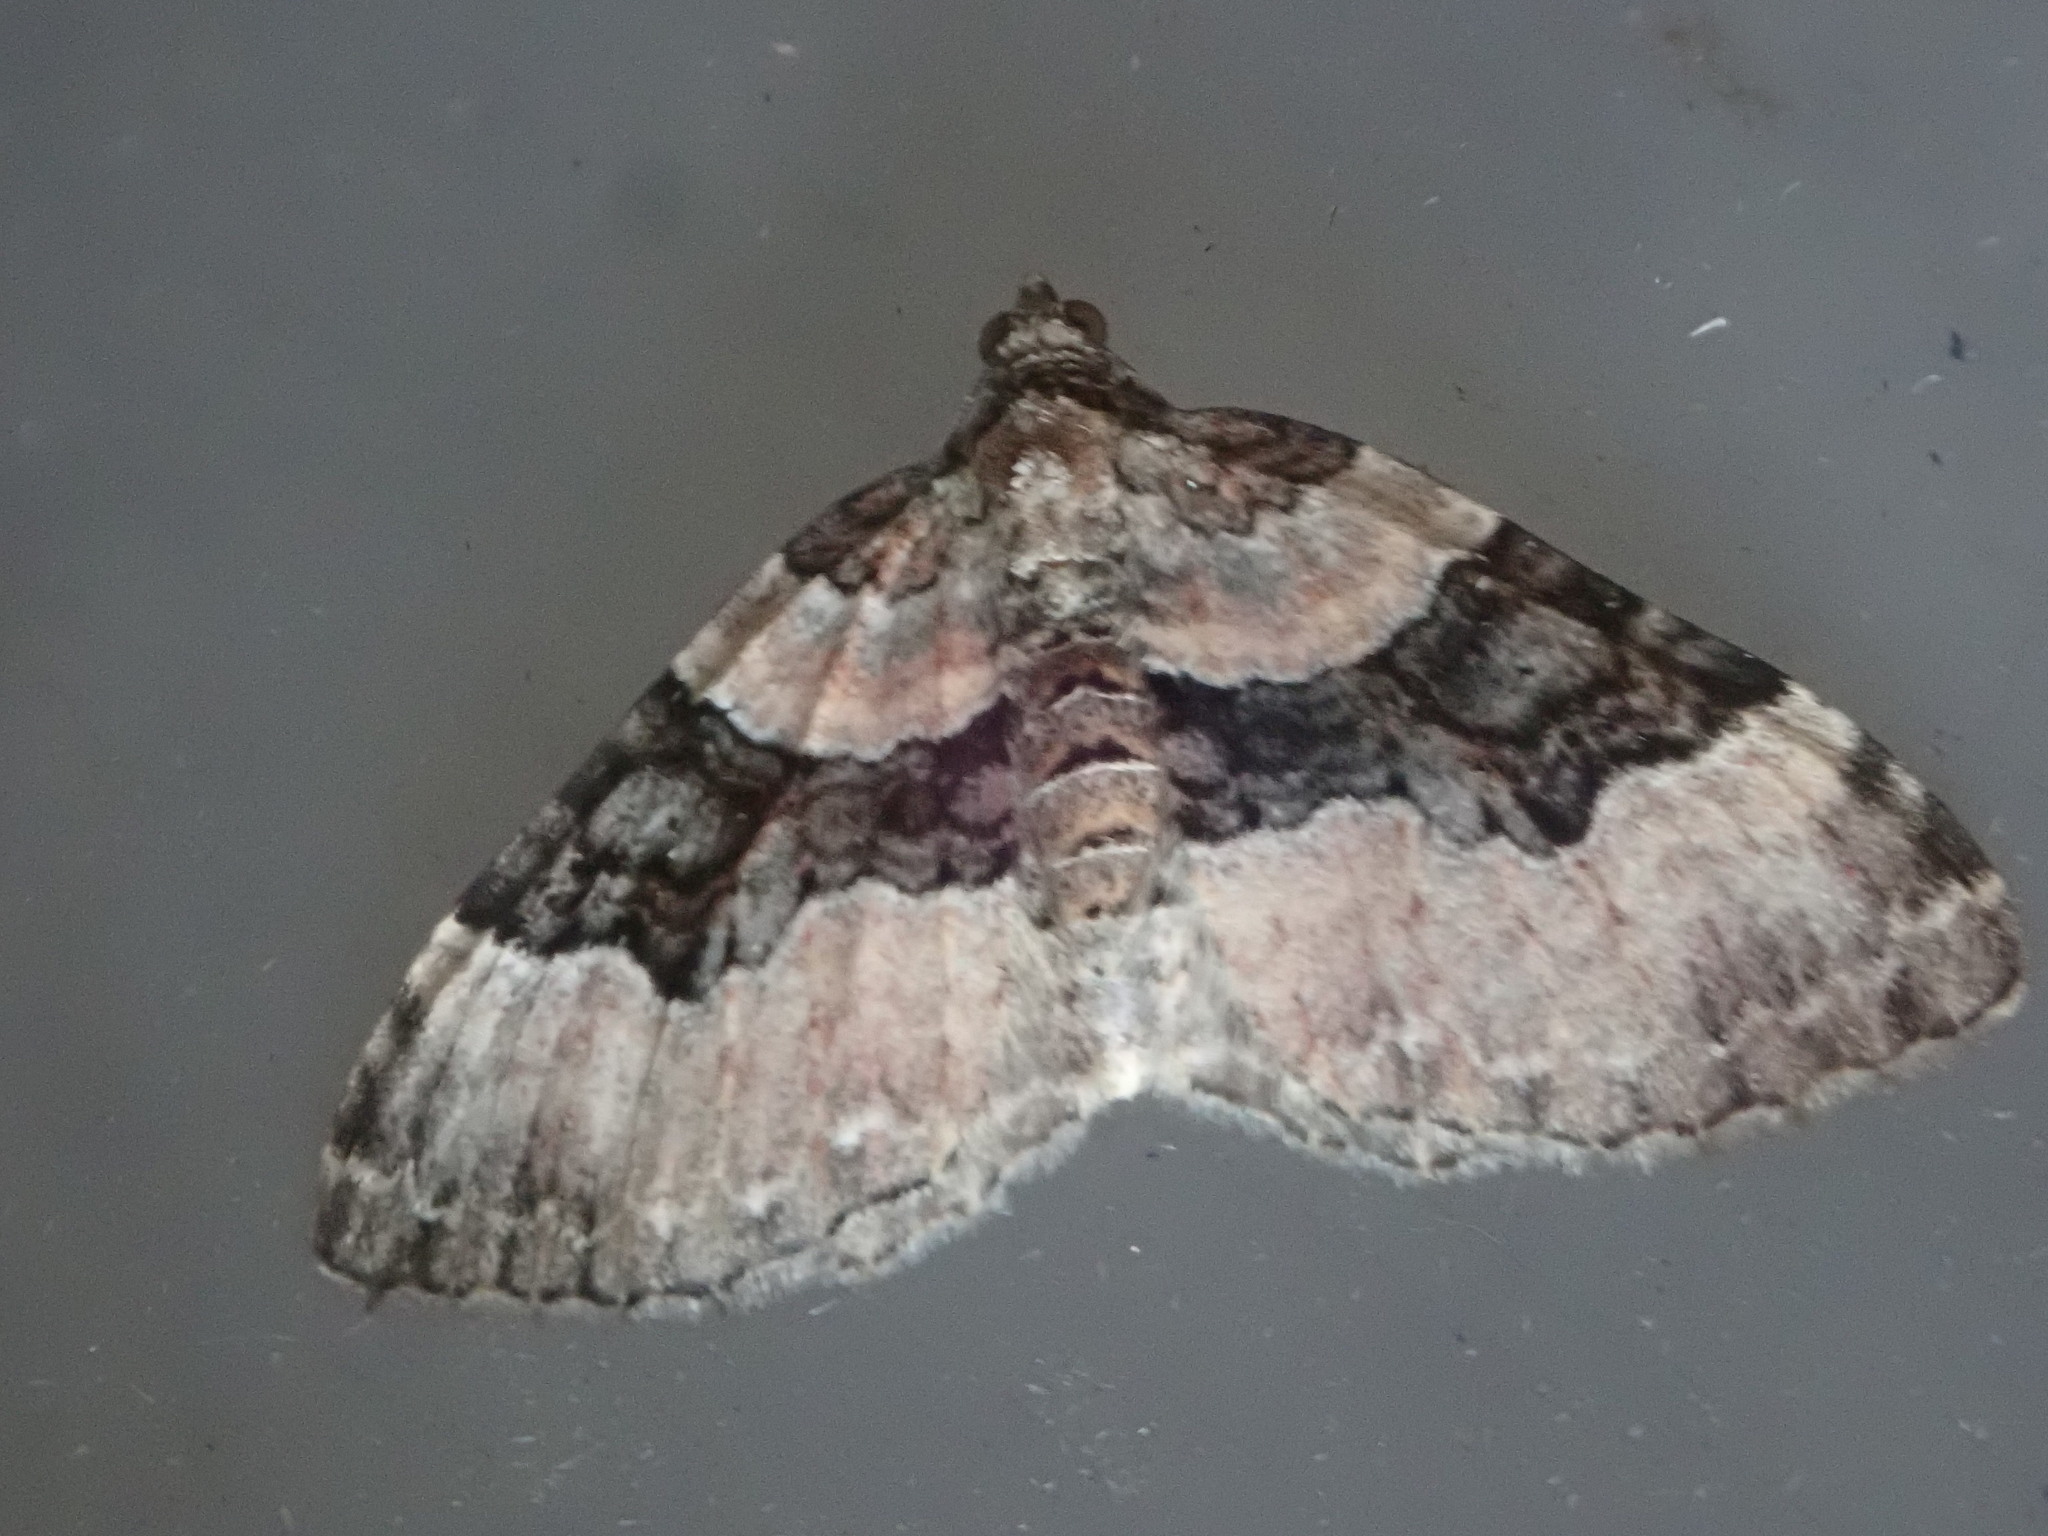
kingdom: Animalia
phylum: Arthropoda
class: Insecta
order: Lepidoptera
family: Geometridae
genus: Xanthorhoe
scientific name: Xanthorhoe lacustrata
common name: Toothed brown carpet
